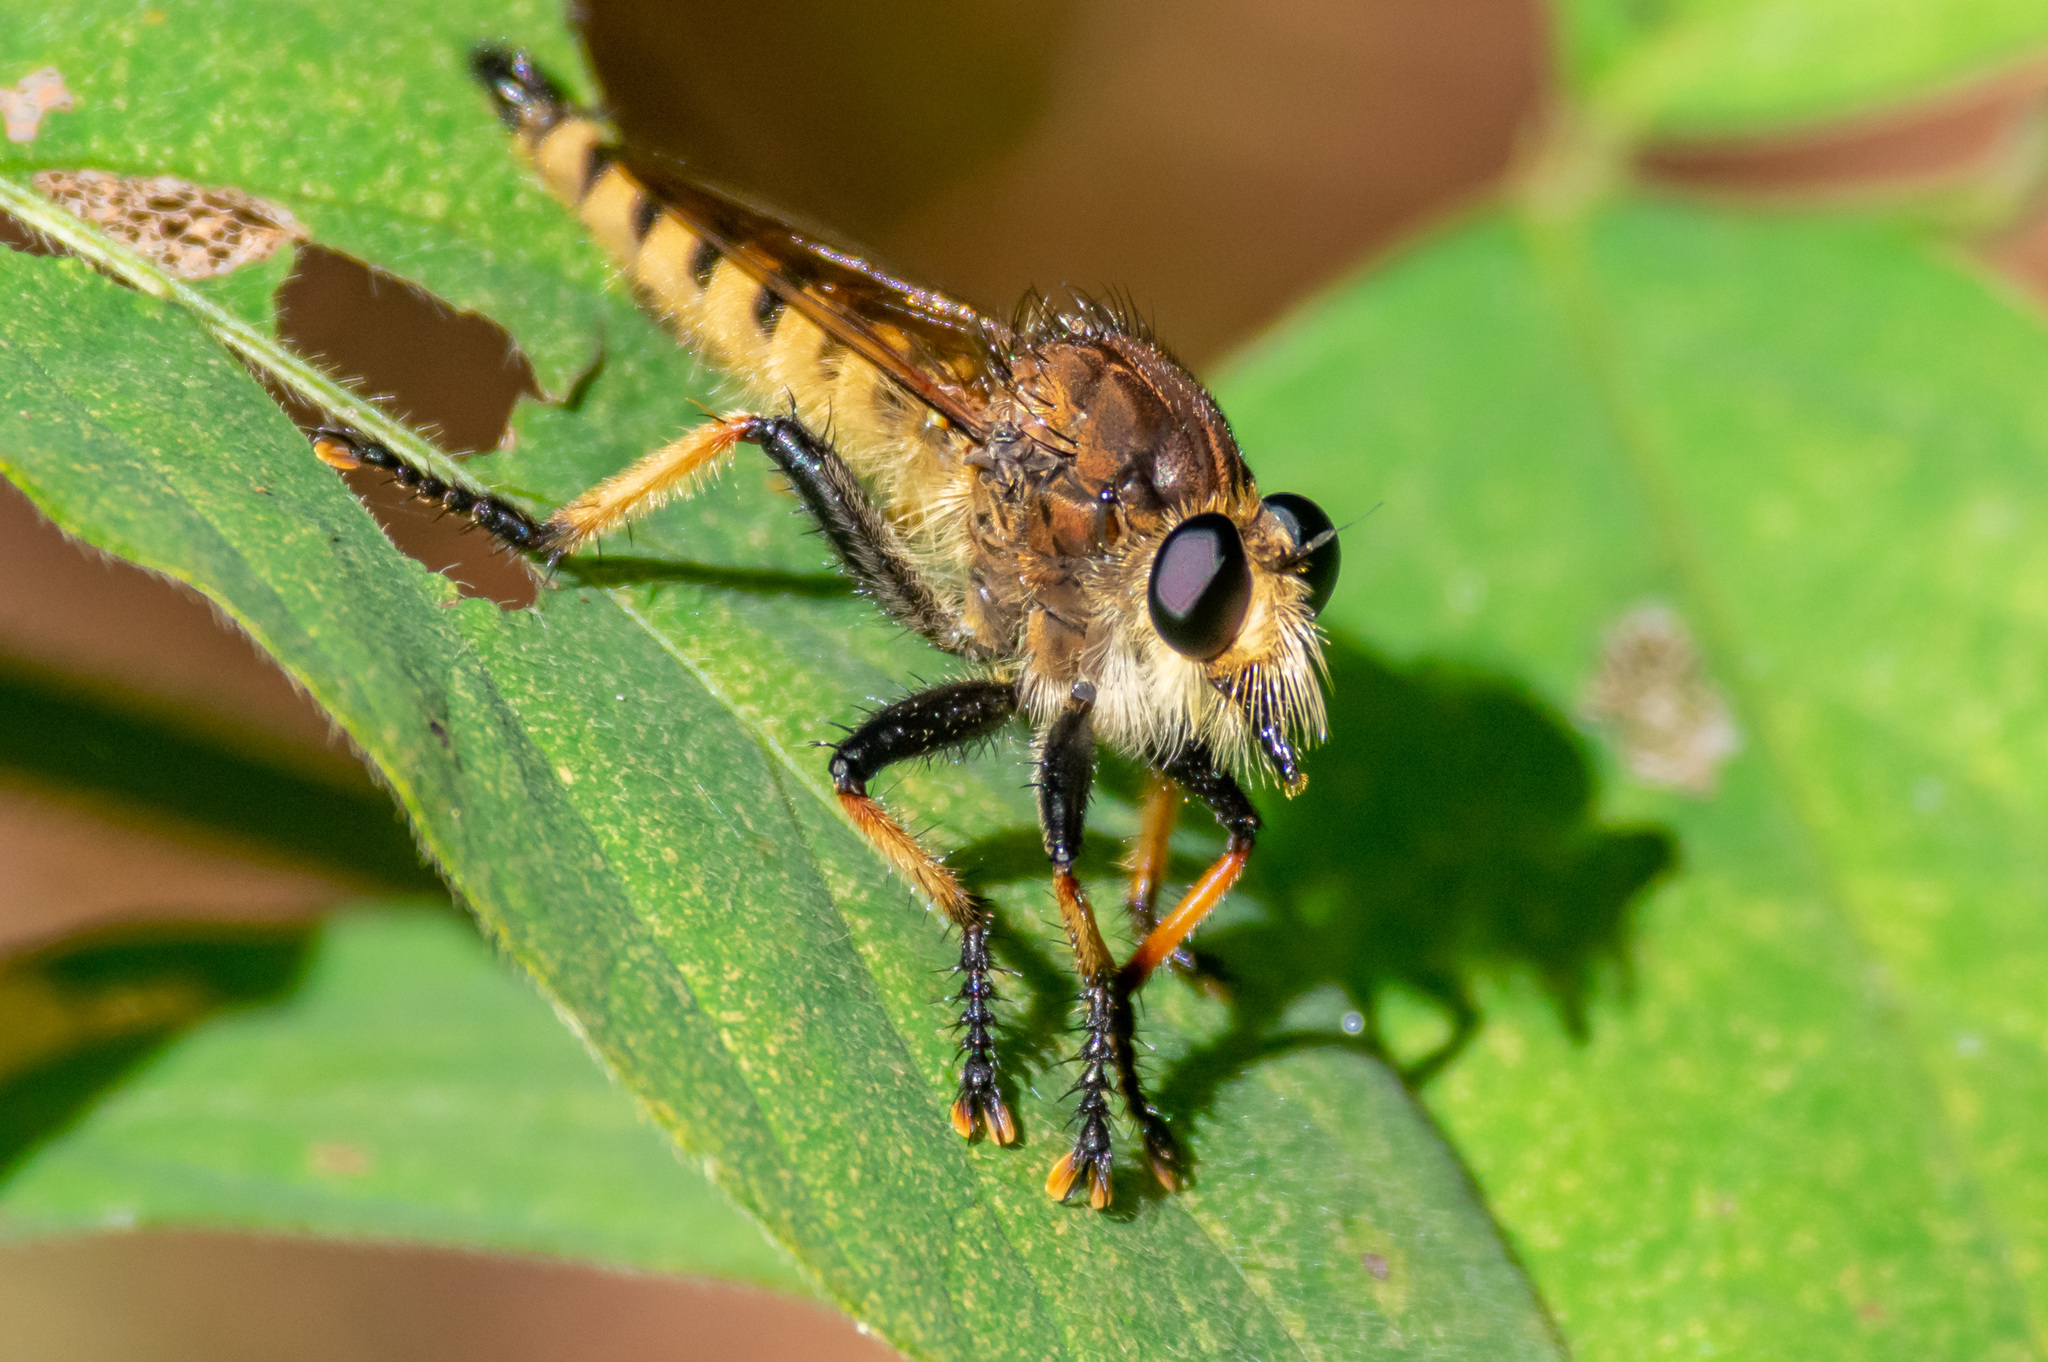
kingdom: Animalia
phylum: Arthropoda
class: Insecta
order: Diptera
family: Asilidae
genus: Promachus
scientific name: Promachus rufipes
